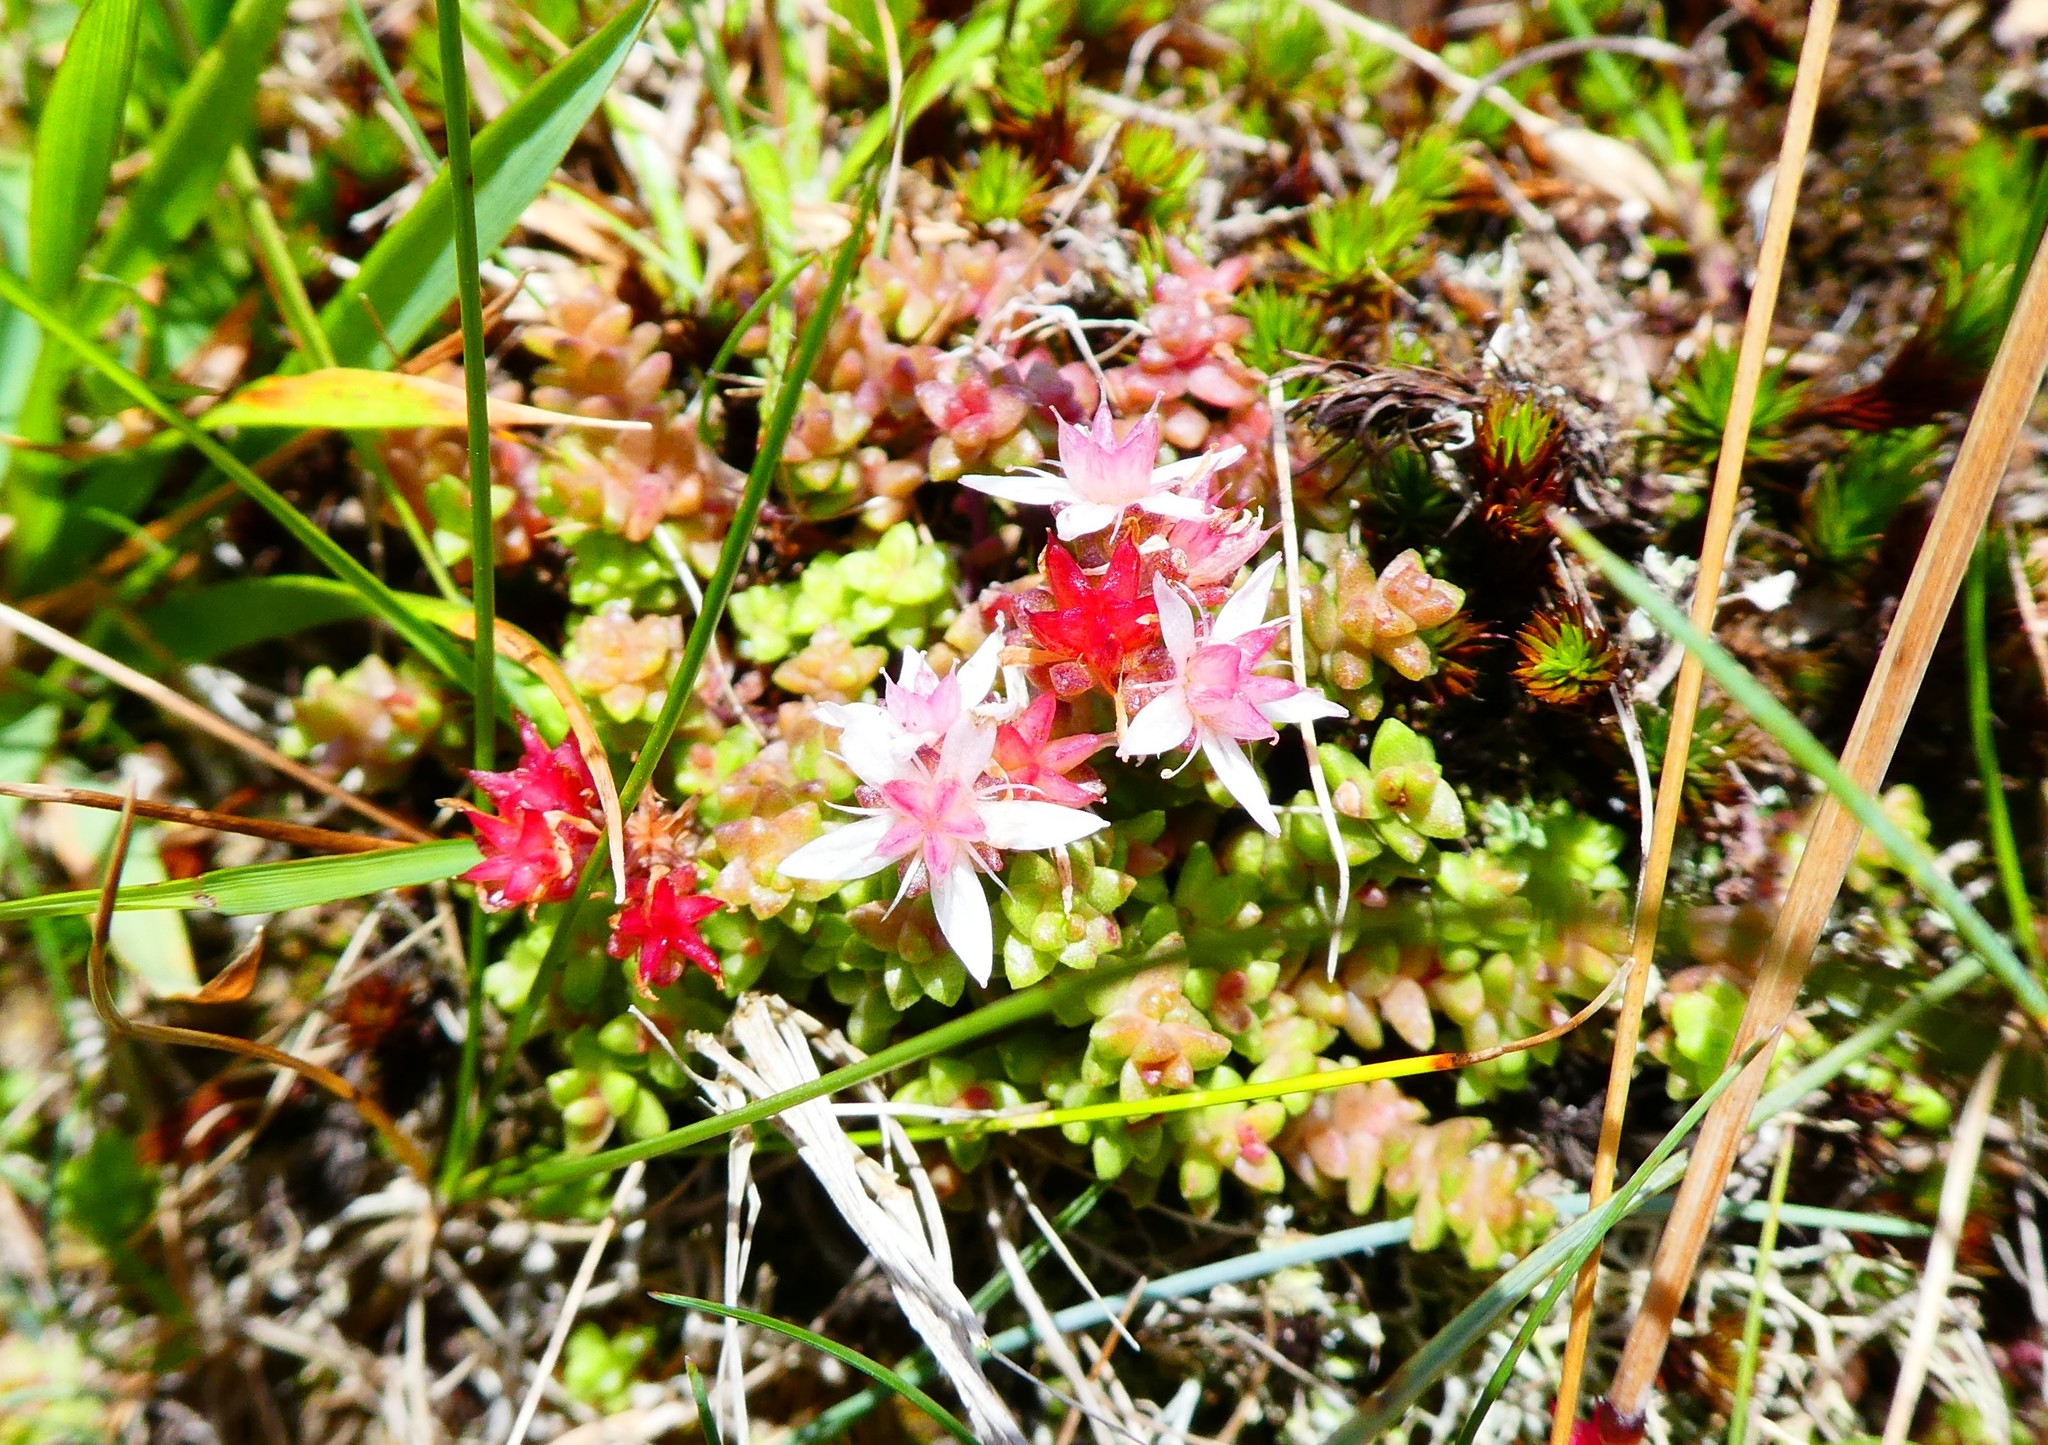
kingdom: Plantae
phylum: Tracheophyta
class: Magnoliopsida
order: Saxifragales
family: Crassulaceae
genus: Sedum
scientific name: Sedum anglicum
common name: English stonecrop
